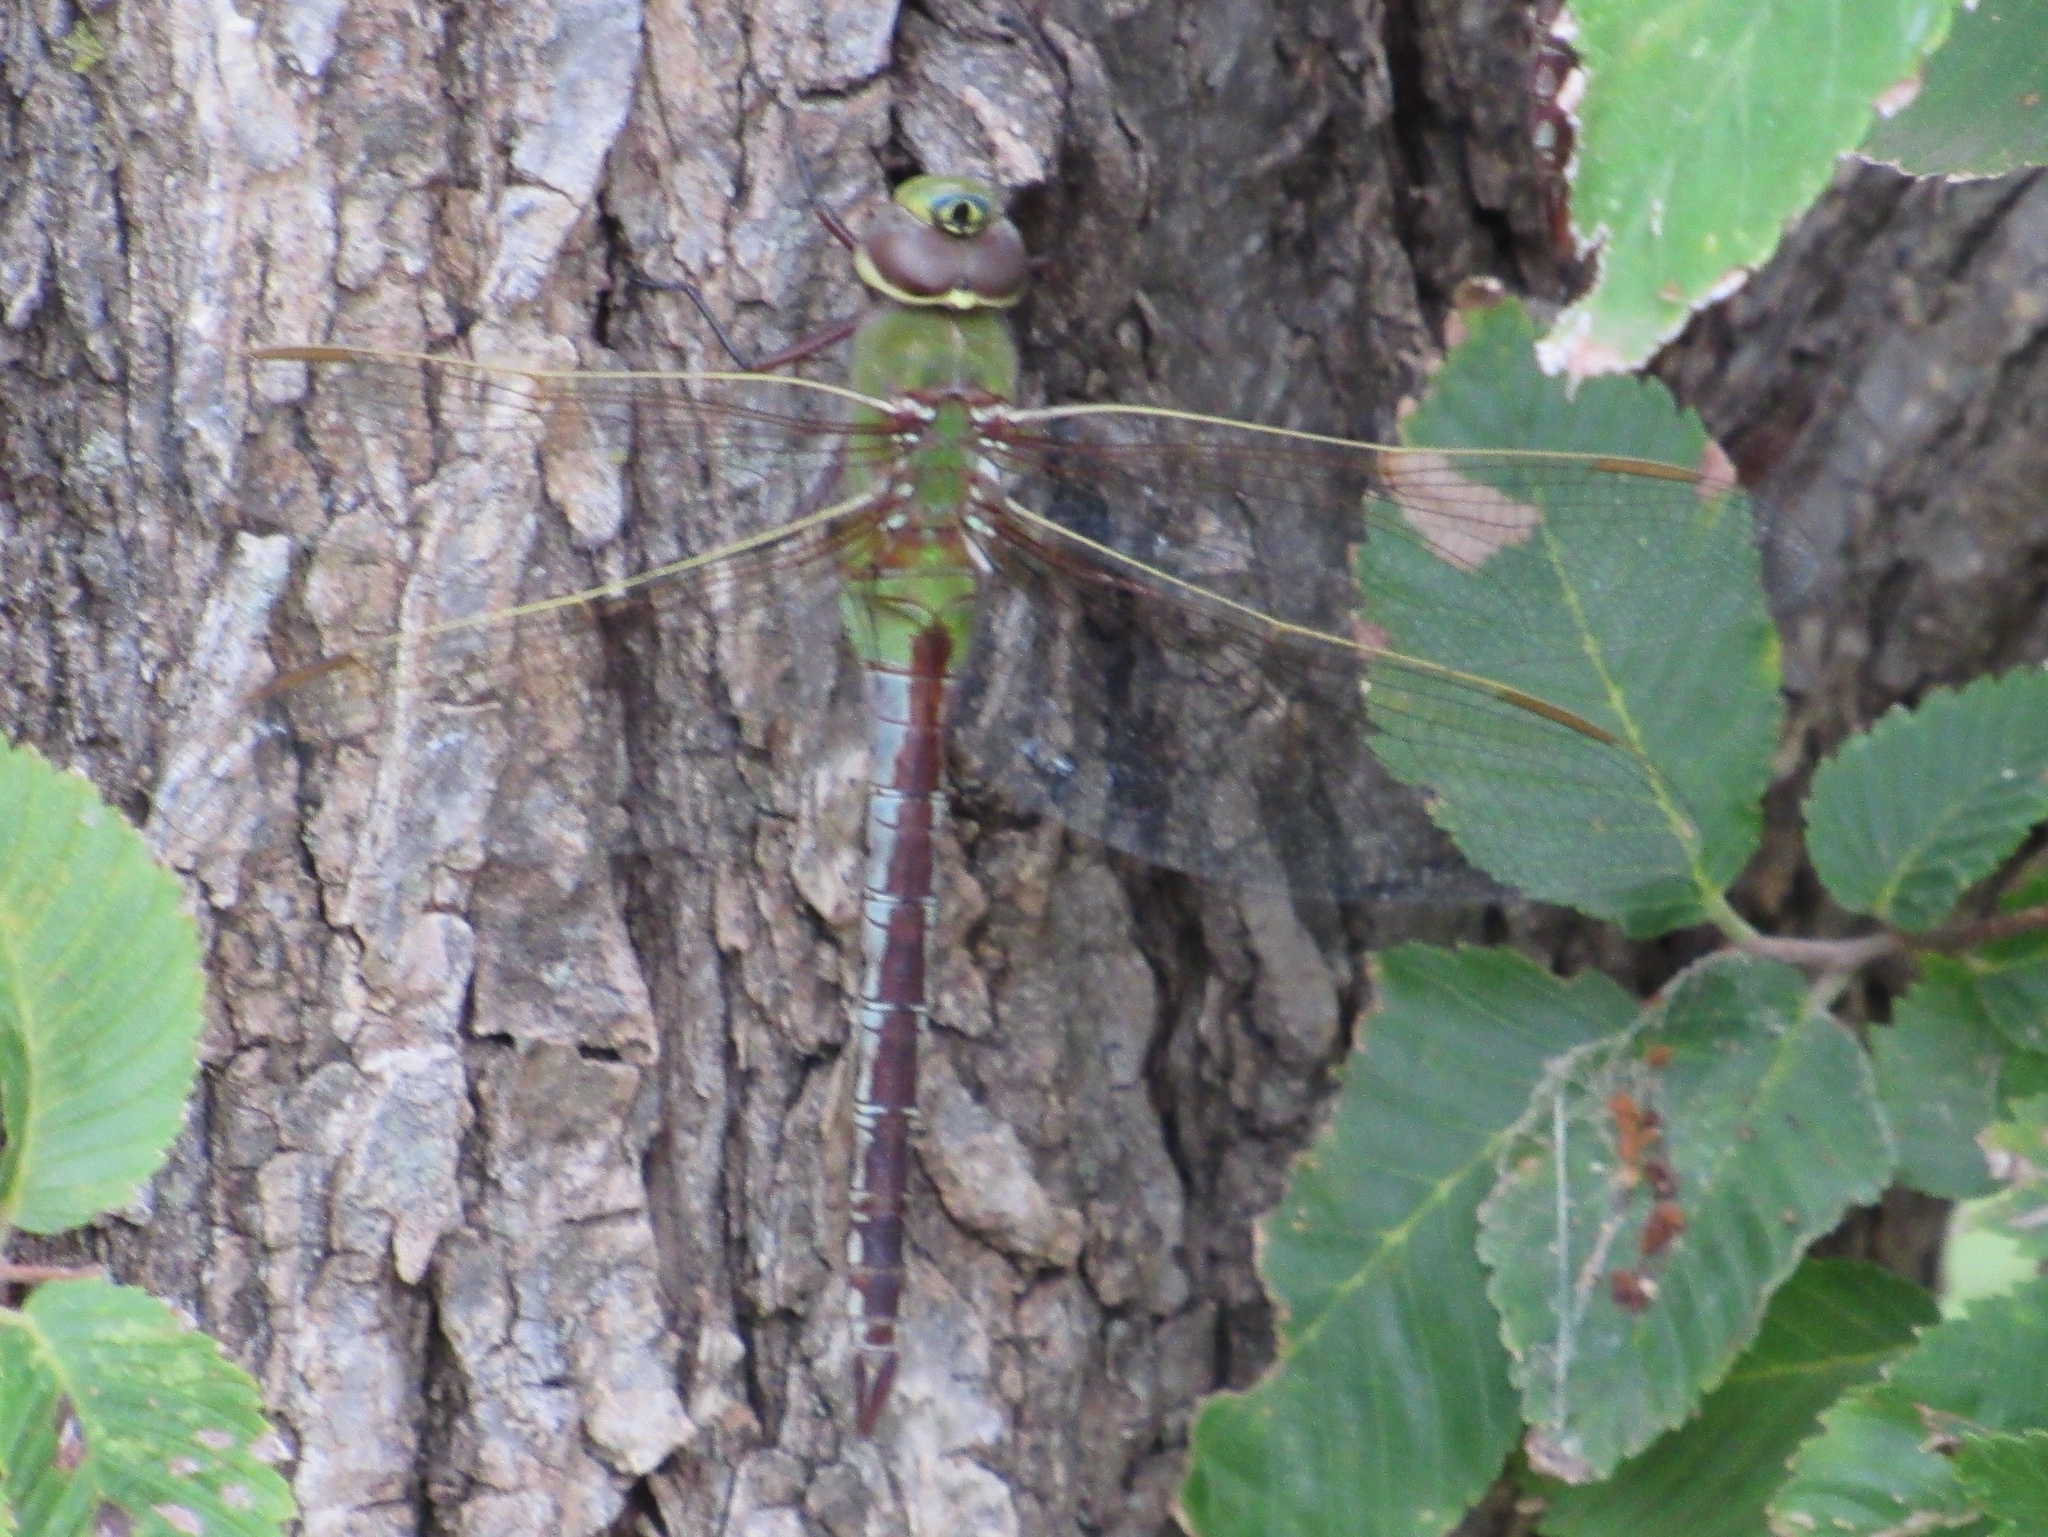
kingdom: Animalia
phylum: Arthropoda
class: Insecta
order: Odonata
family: Aeshnidae
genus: Anax
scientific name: Anax junius
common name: Common green darner
